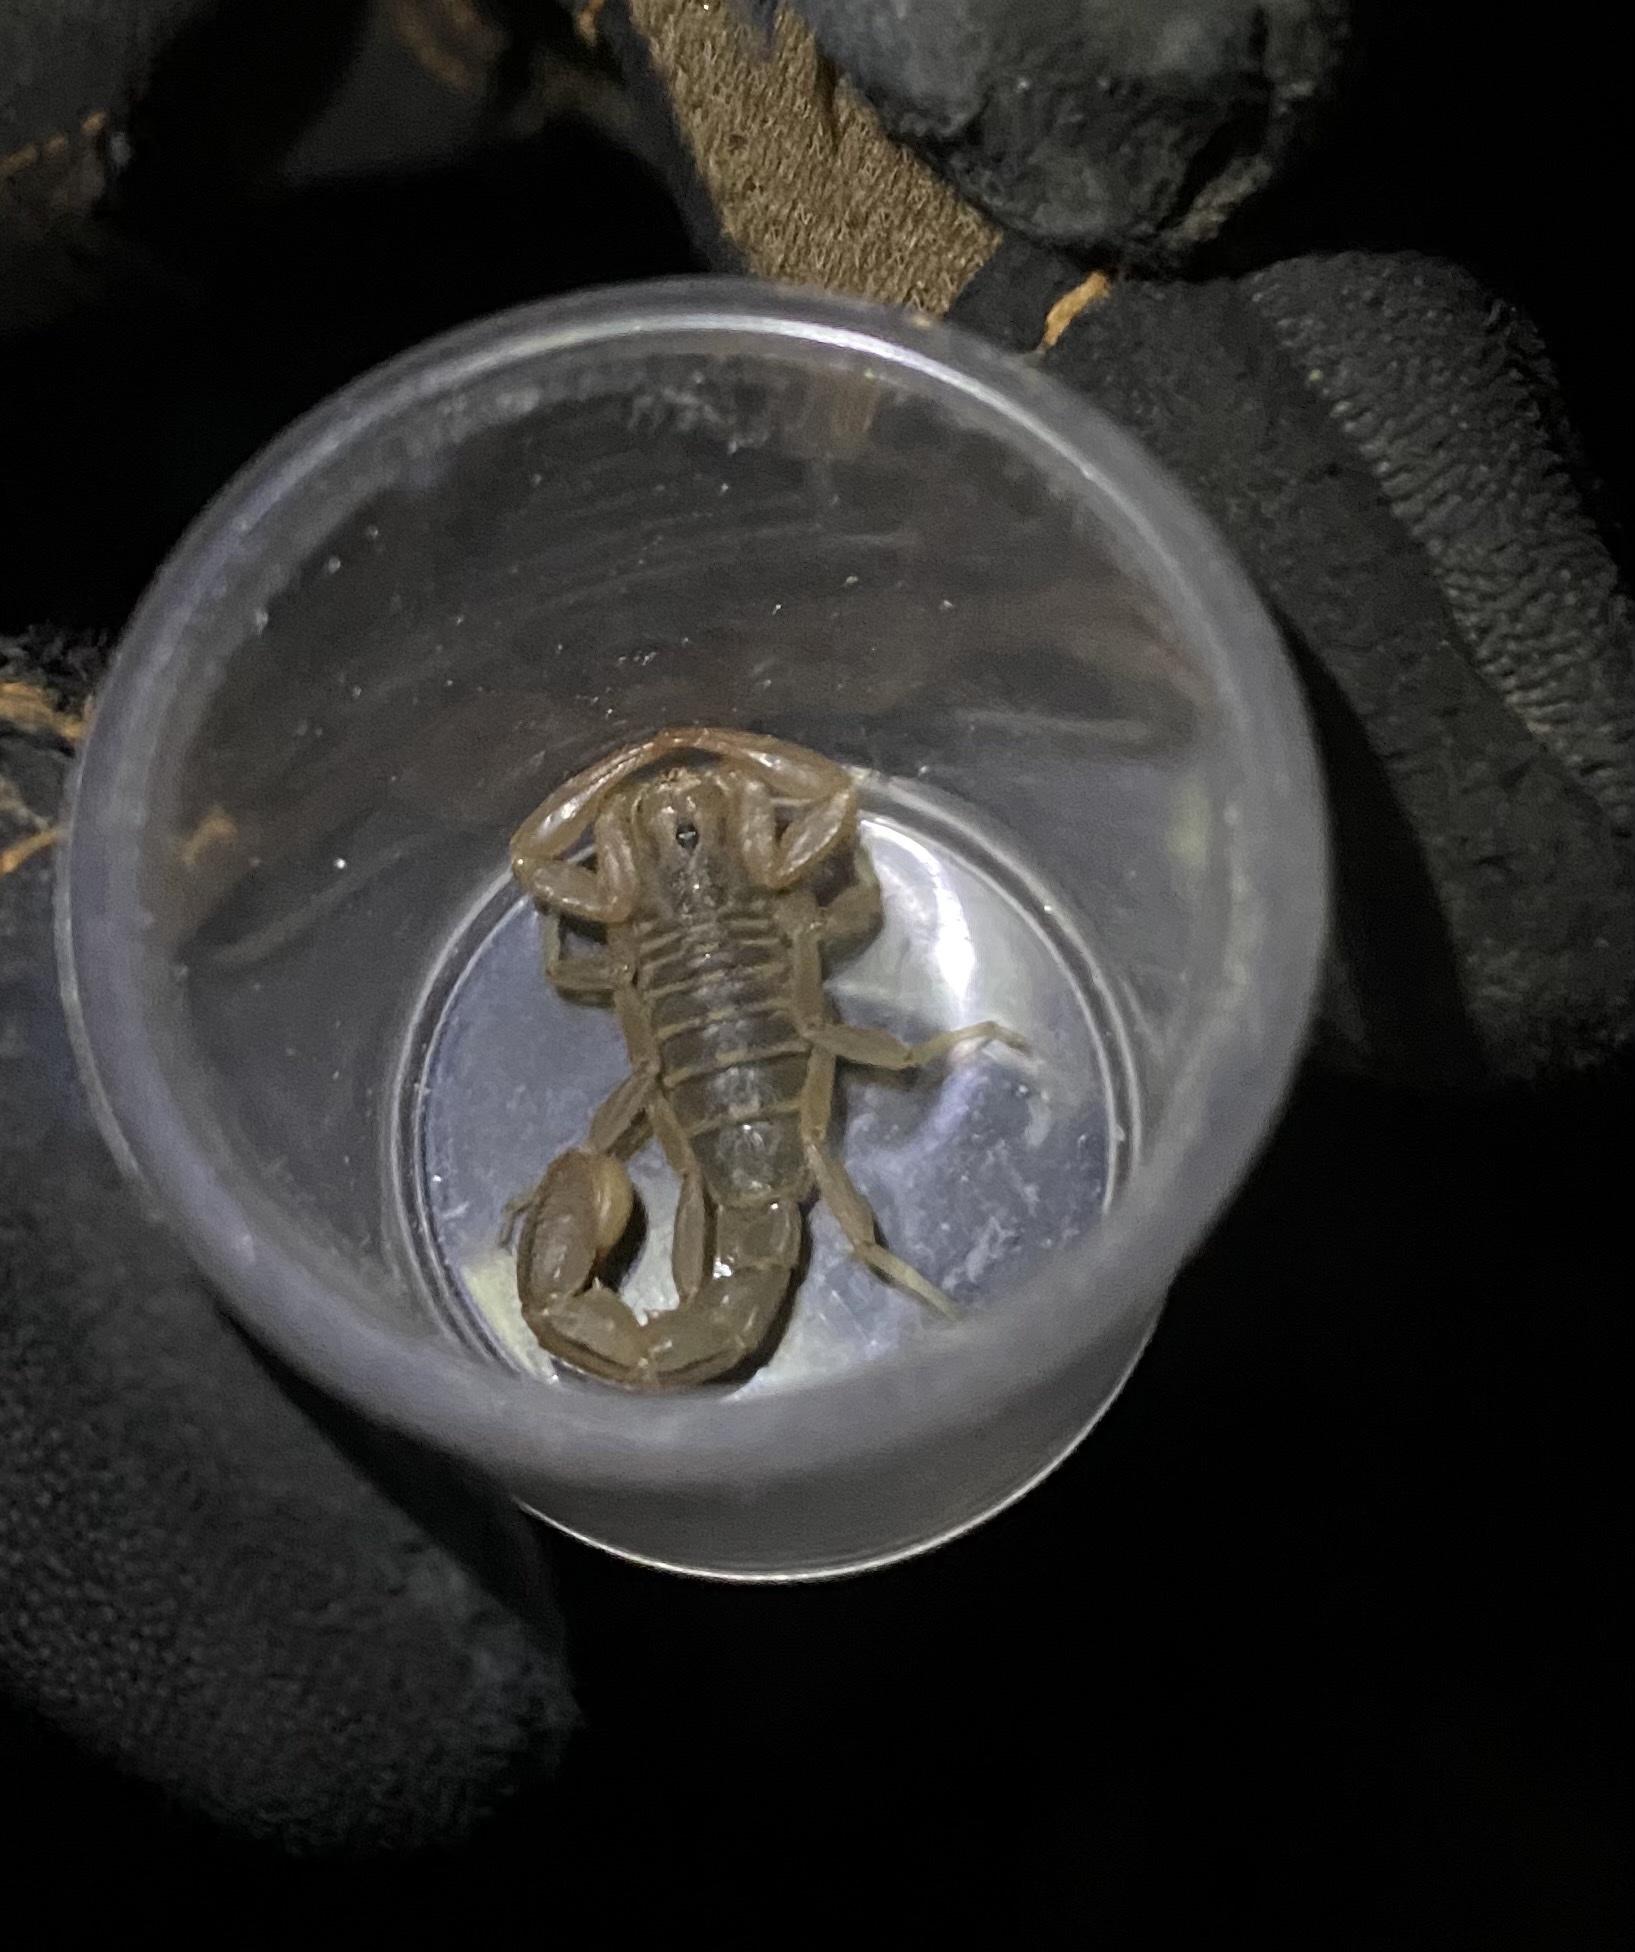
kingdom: Animalia
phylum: Arthropoda
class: Arachnida
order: Scorpiones
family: Vaejovidae
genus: Paravaejovis
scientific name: Paravaejovis spinigerus
